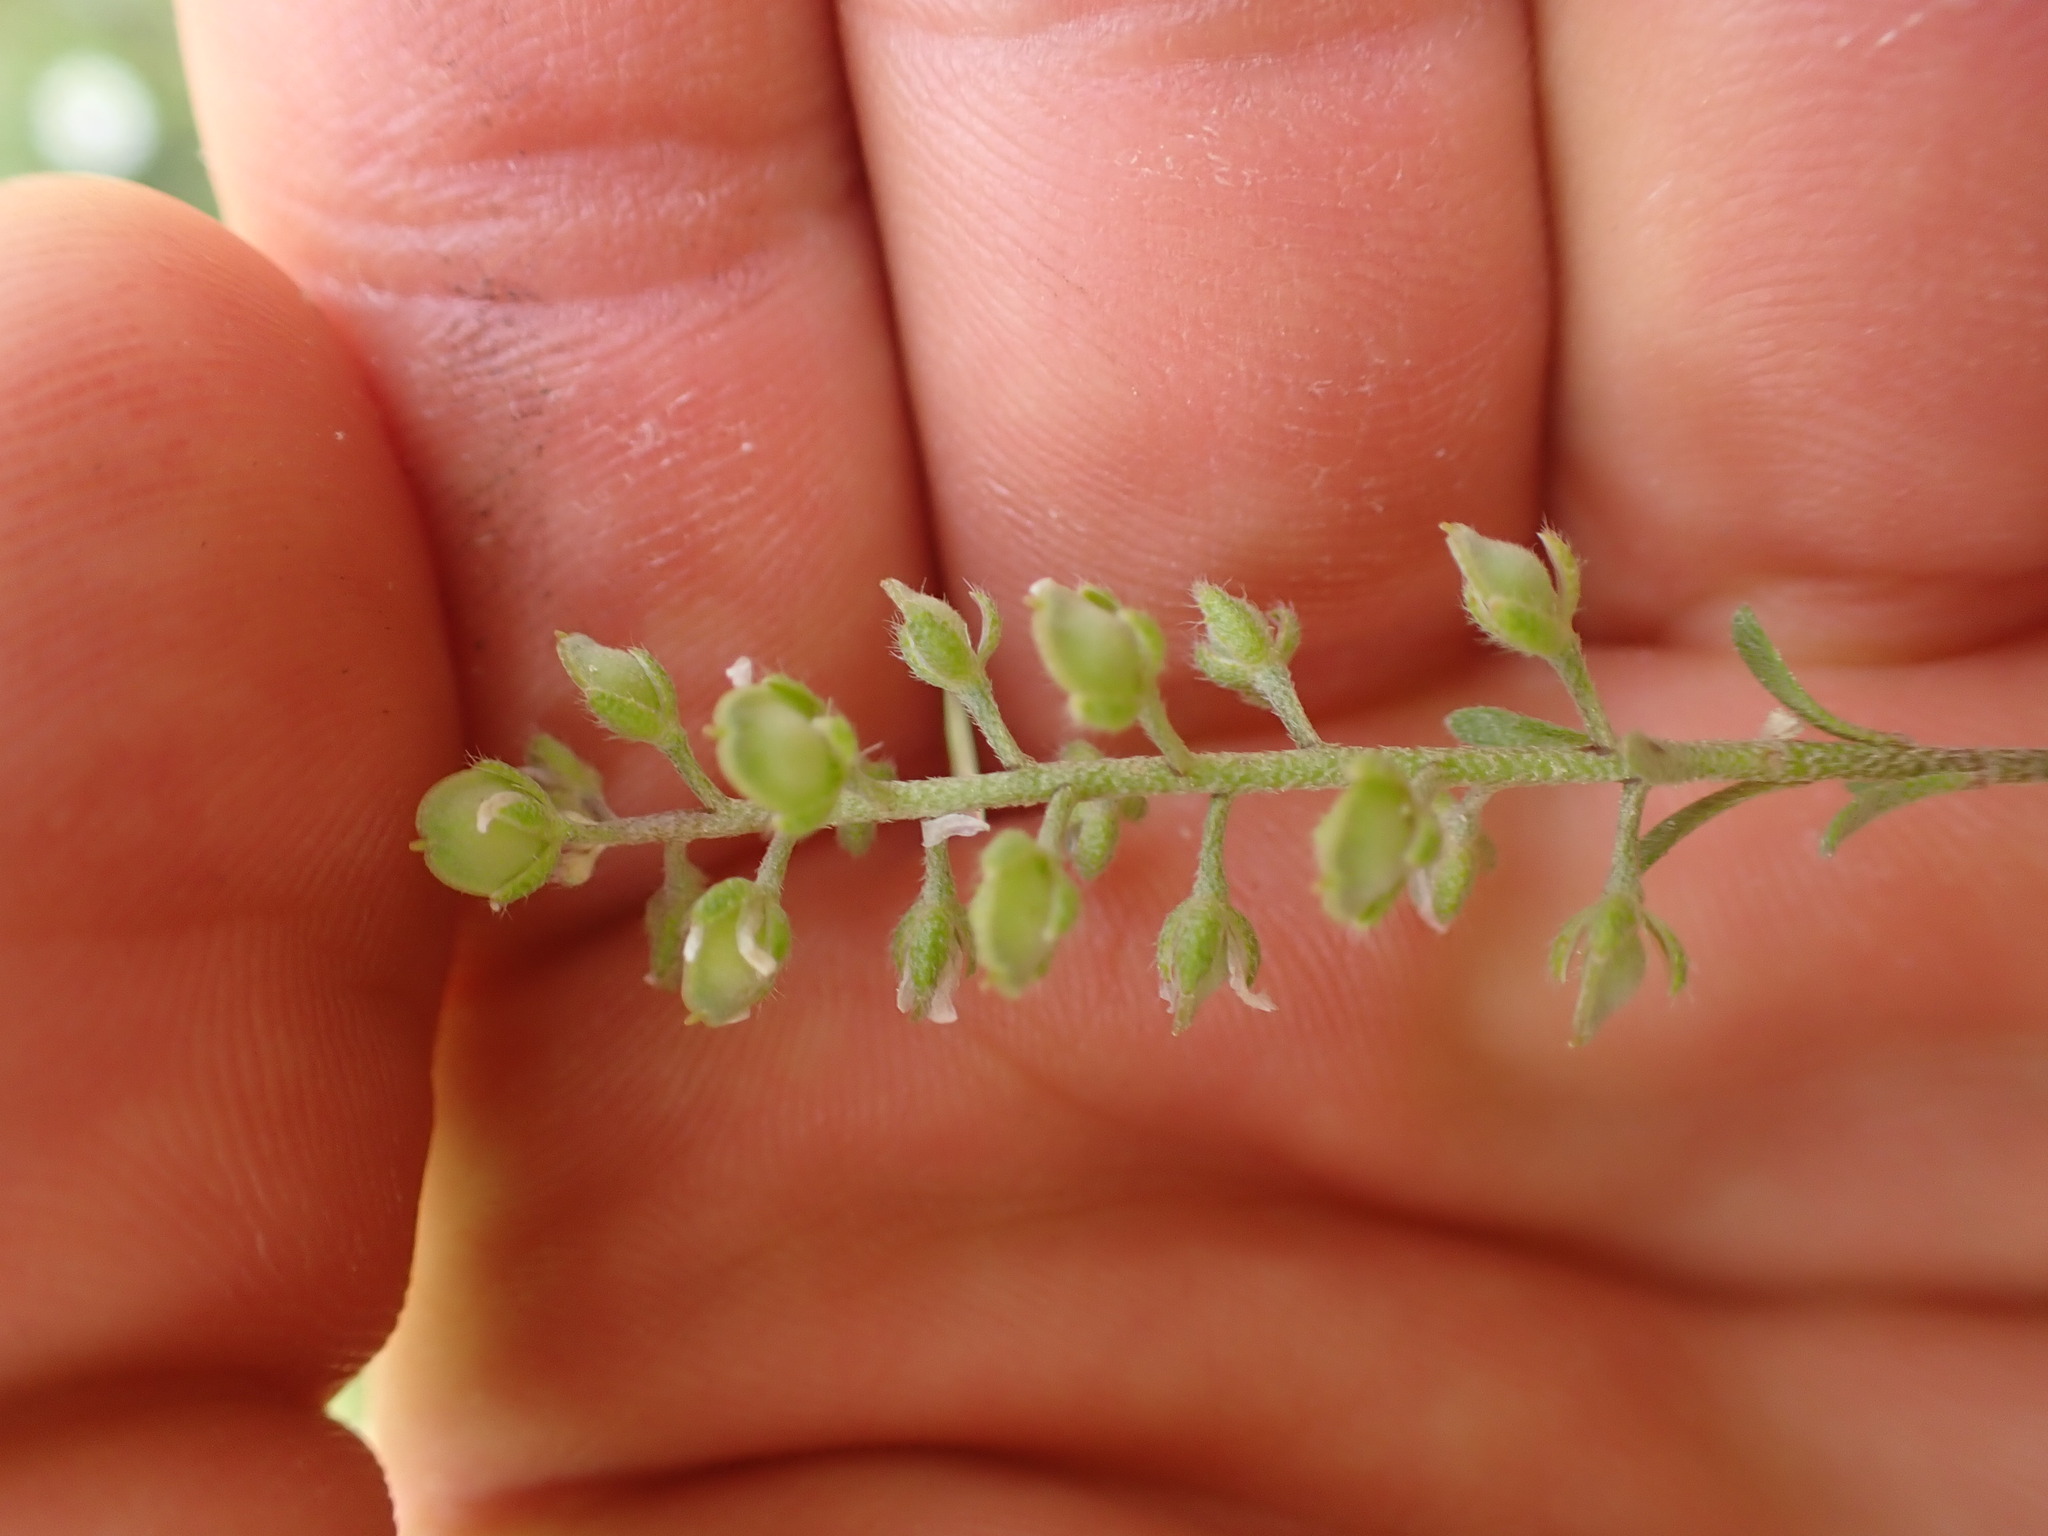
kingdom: Plantae
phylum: Tracheophyta
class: Magnoliopsida
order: Brassicales
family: Brassicaceae
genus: Alyssum
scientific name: Alyssum alyssoides
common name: Small alison
